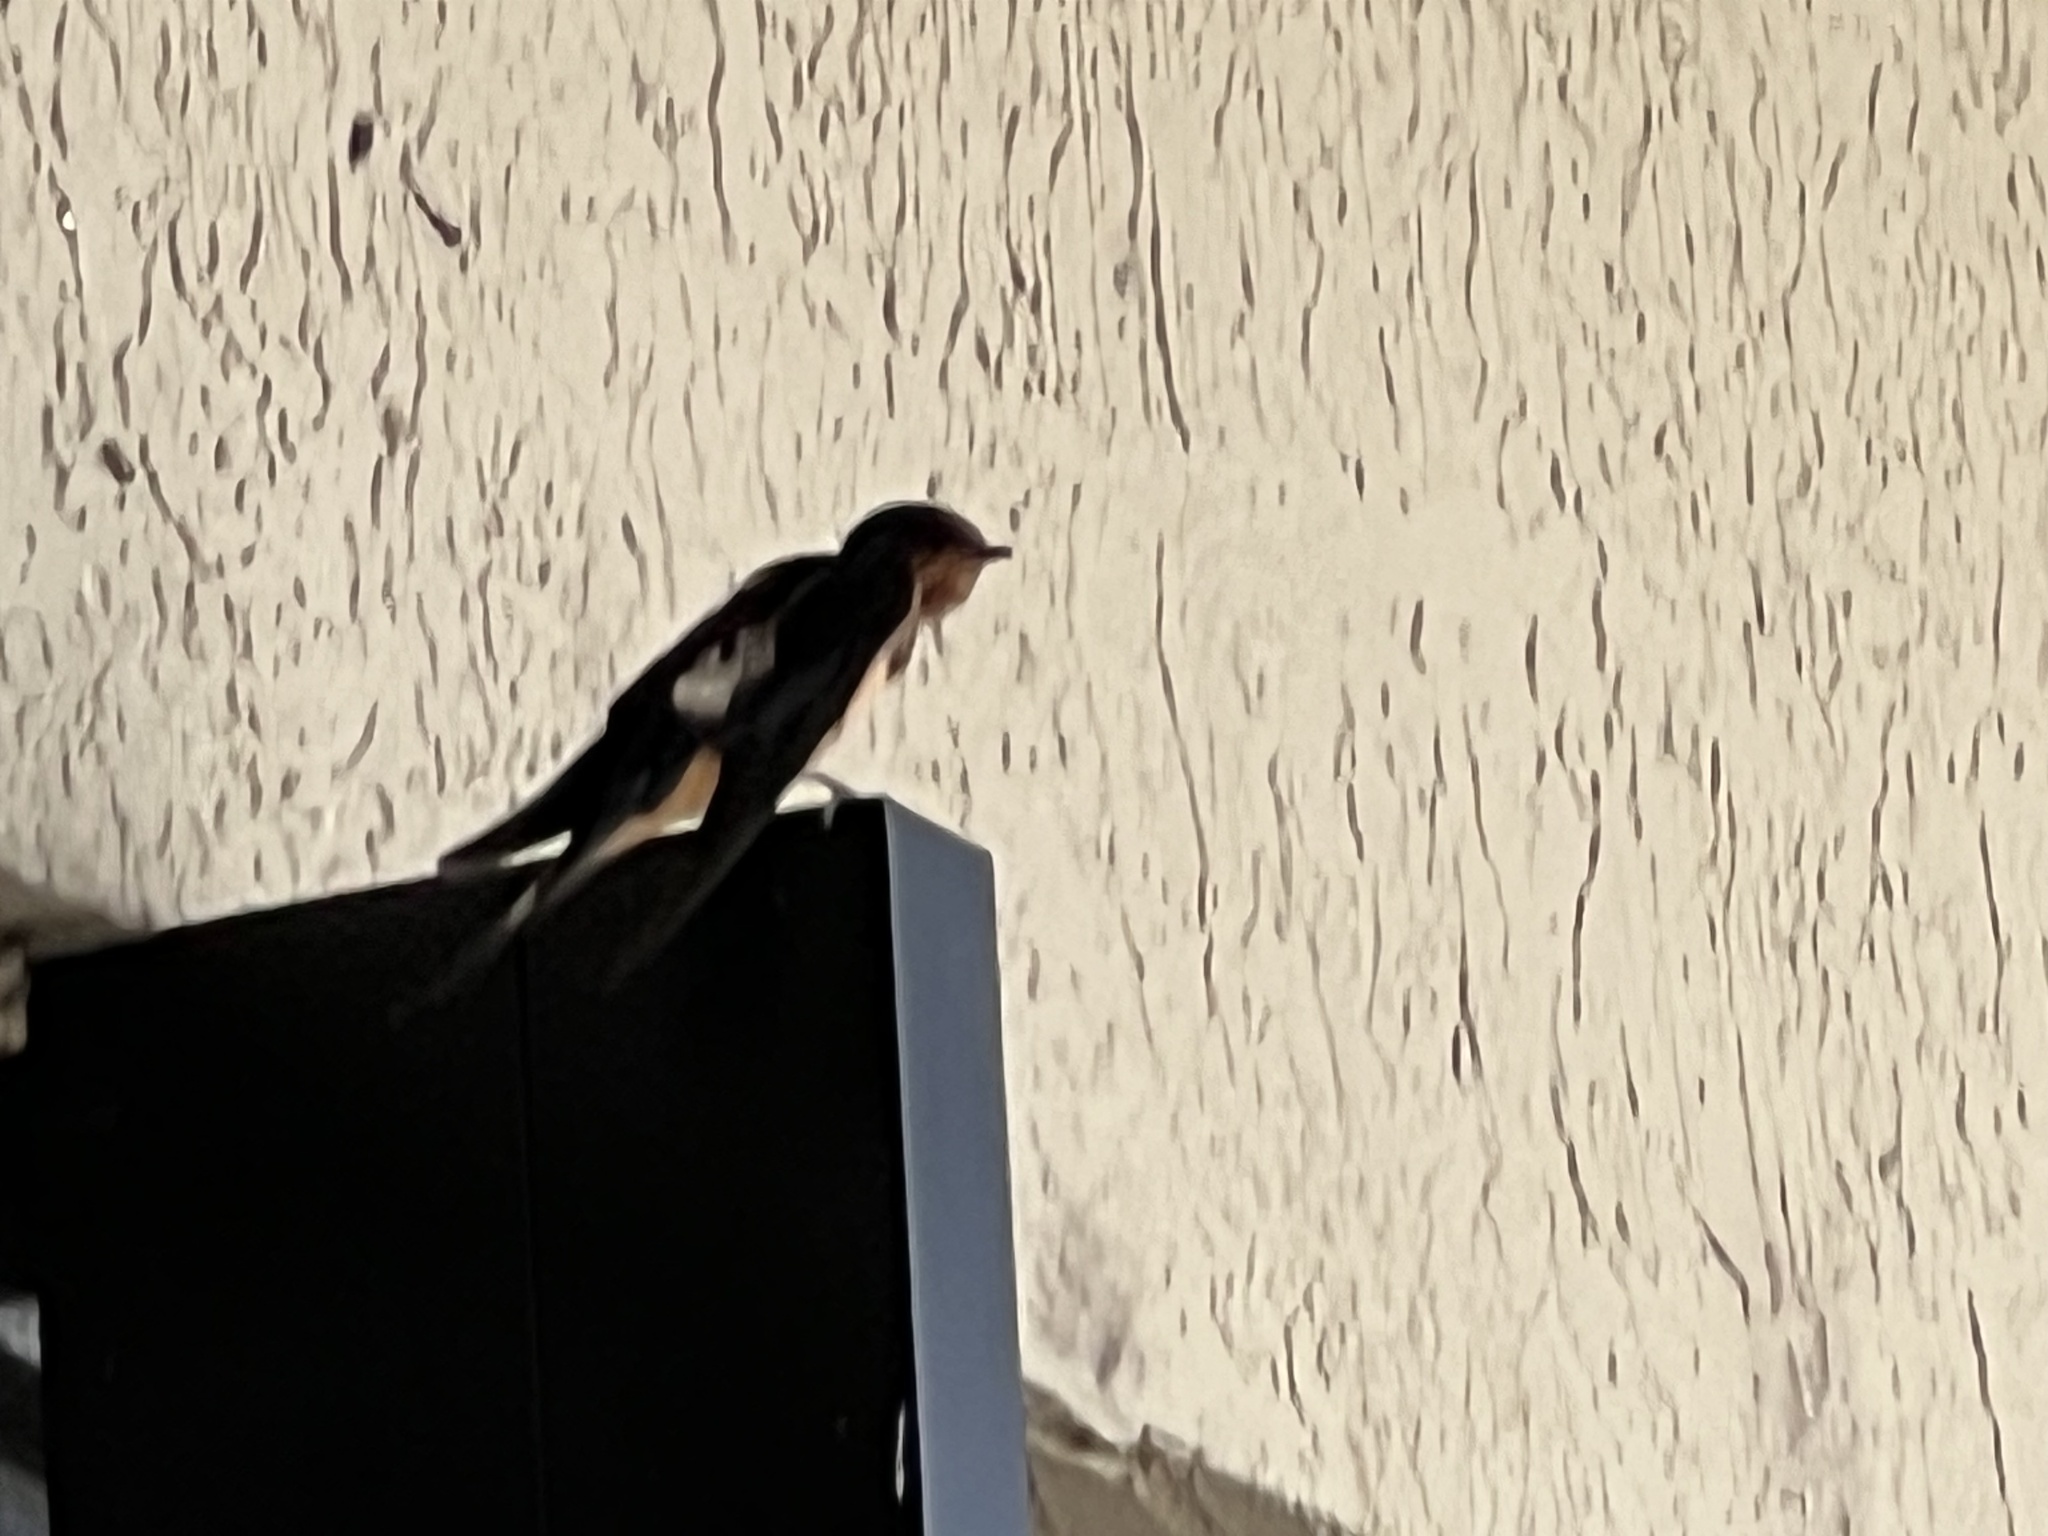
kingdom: Animalia
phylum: Chordata
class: Aves
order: Passeriformes
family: Hirundinidae
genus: Hirundo
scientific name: Hirundo rustica
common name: Barn swallow
